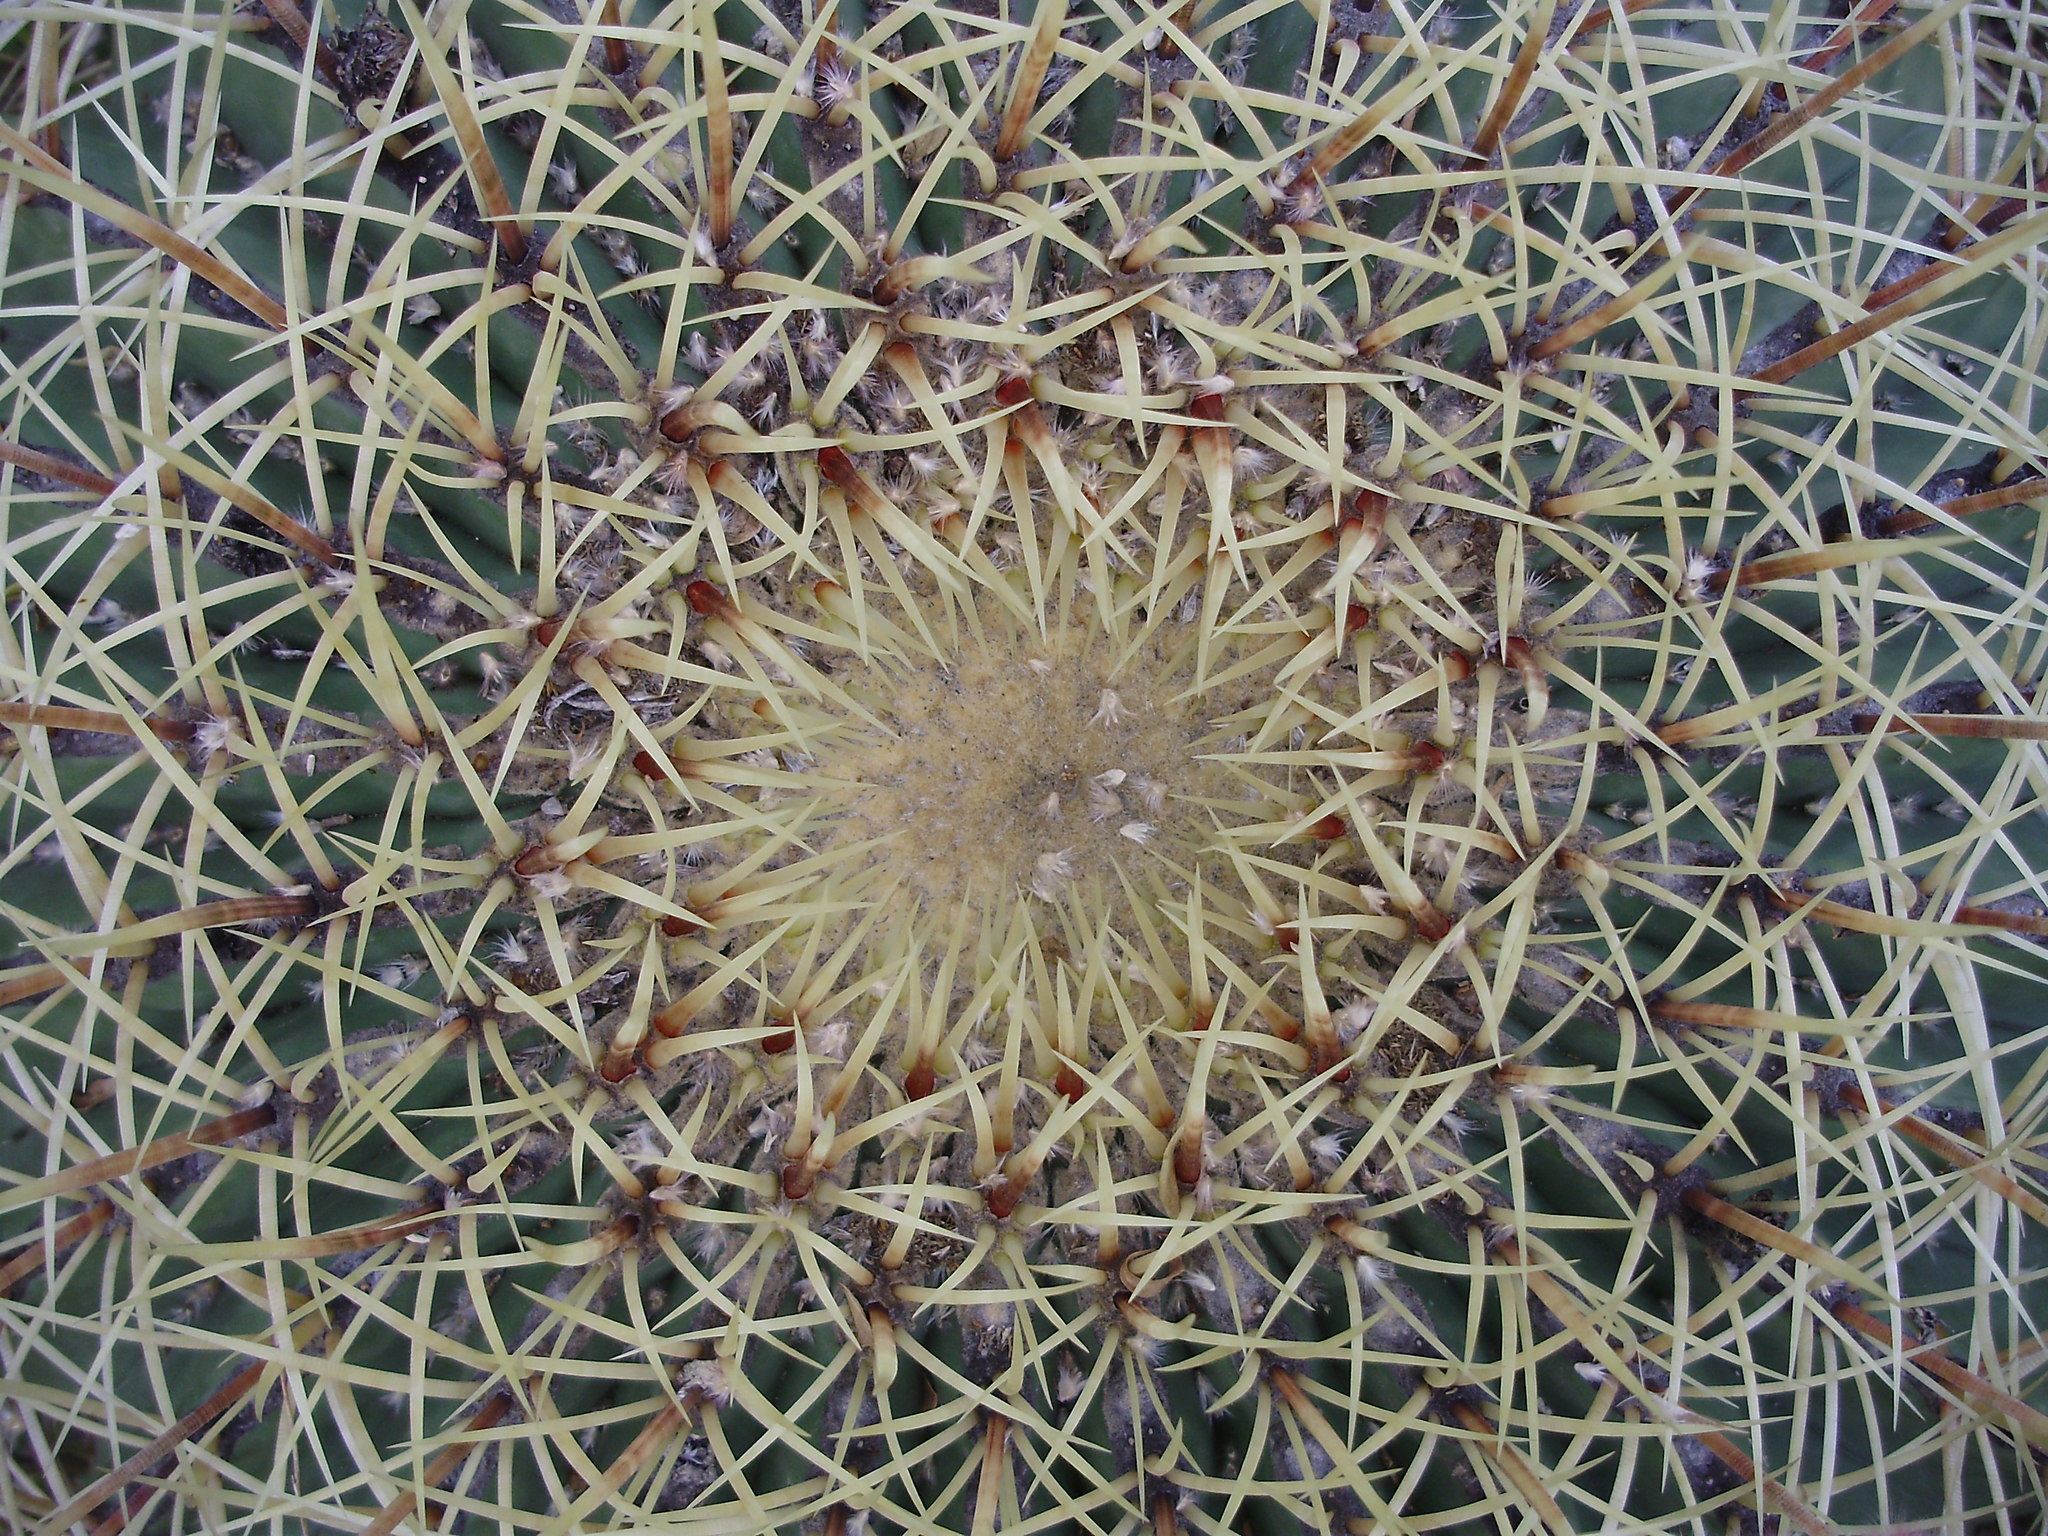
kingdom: Plantae
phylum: Tracheophyta
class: Magnoliopsida
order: Caryophyllales
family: Cactaceae
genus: Bisnaga
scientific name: Bisnaga histrix
